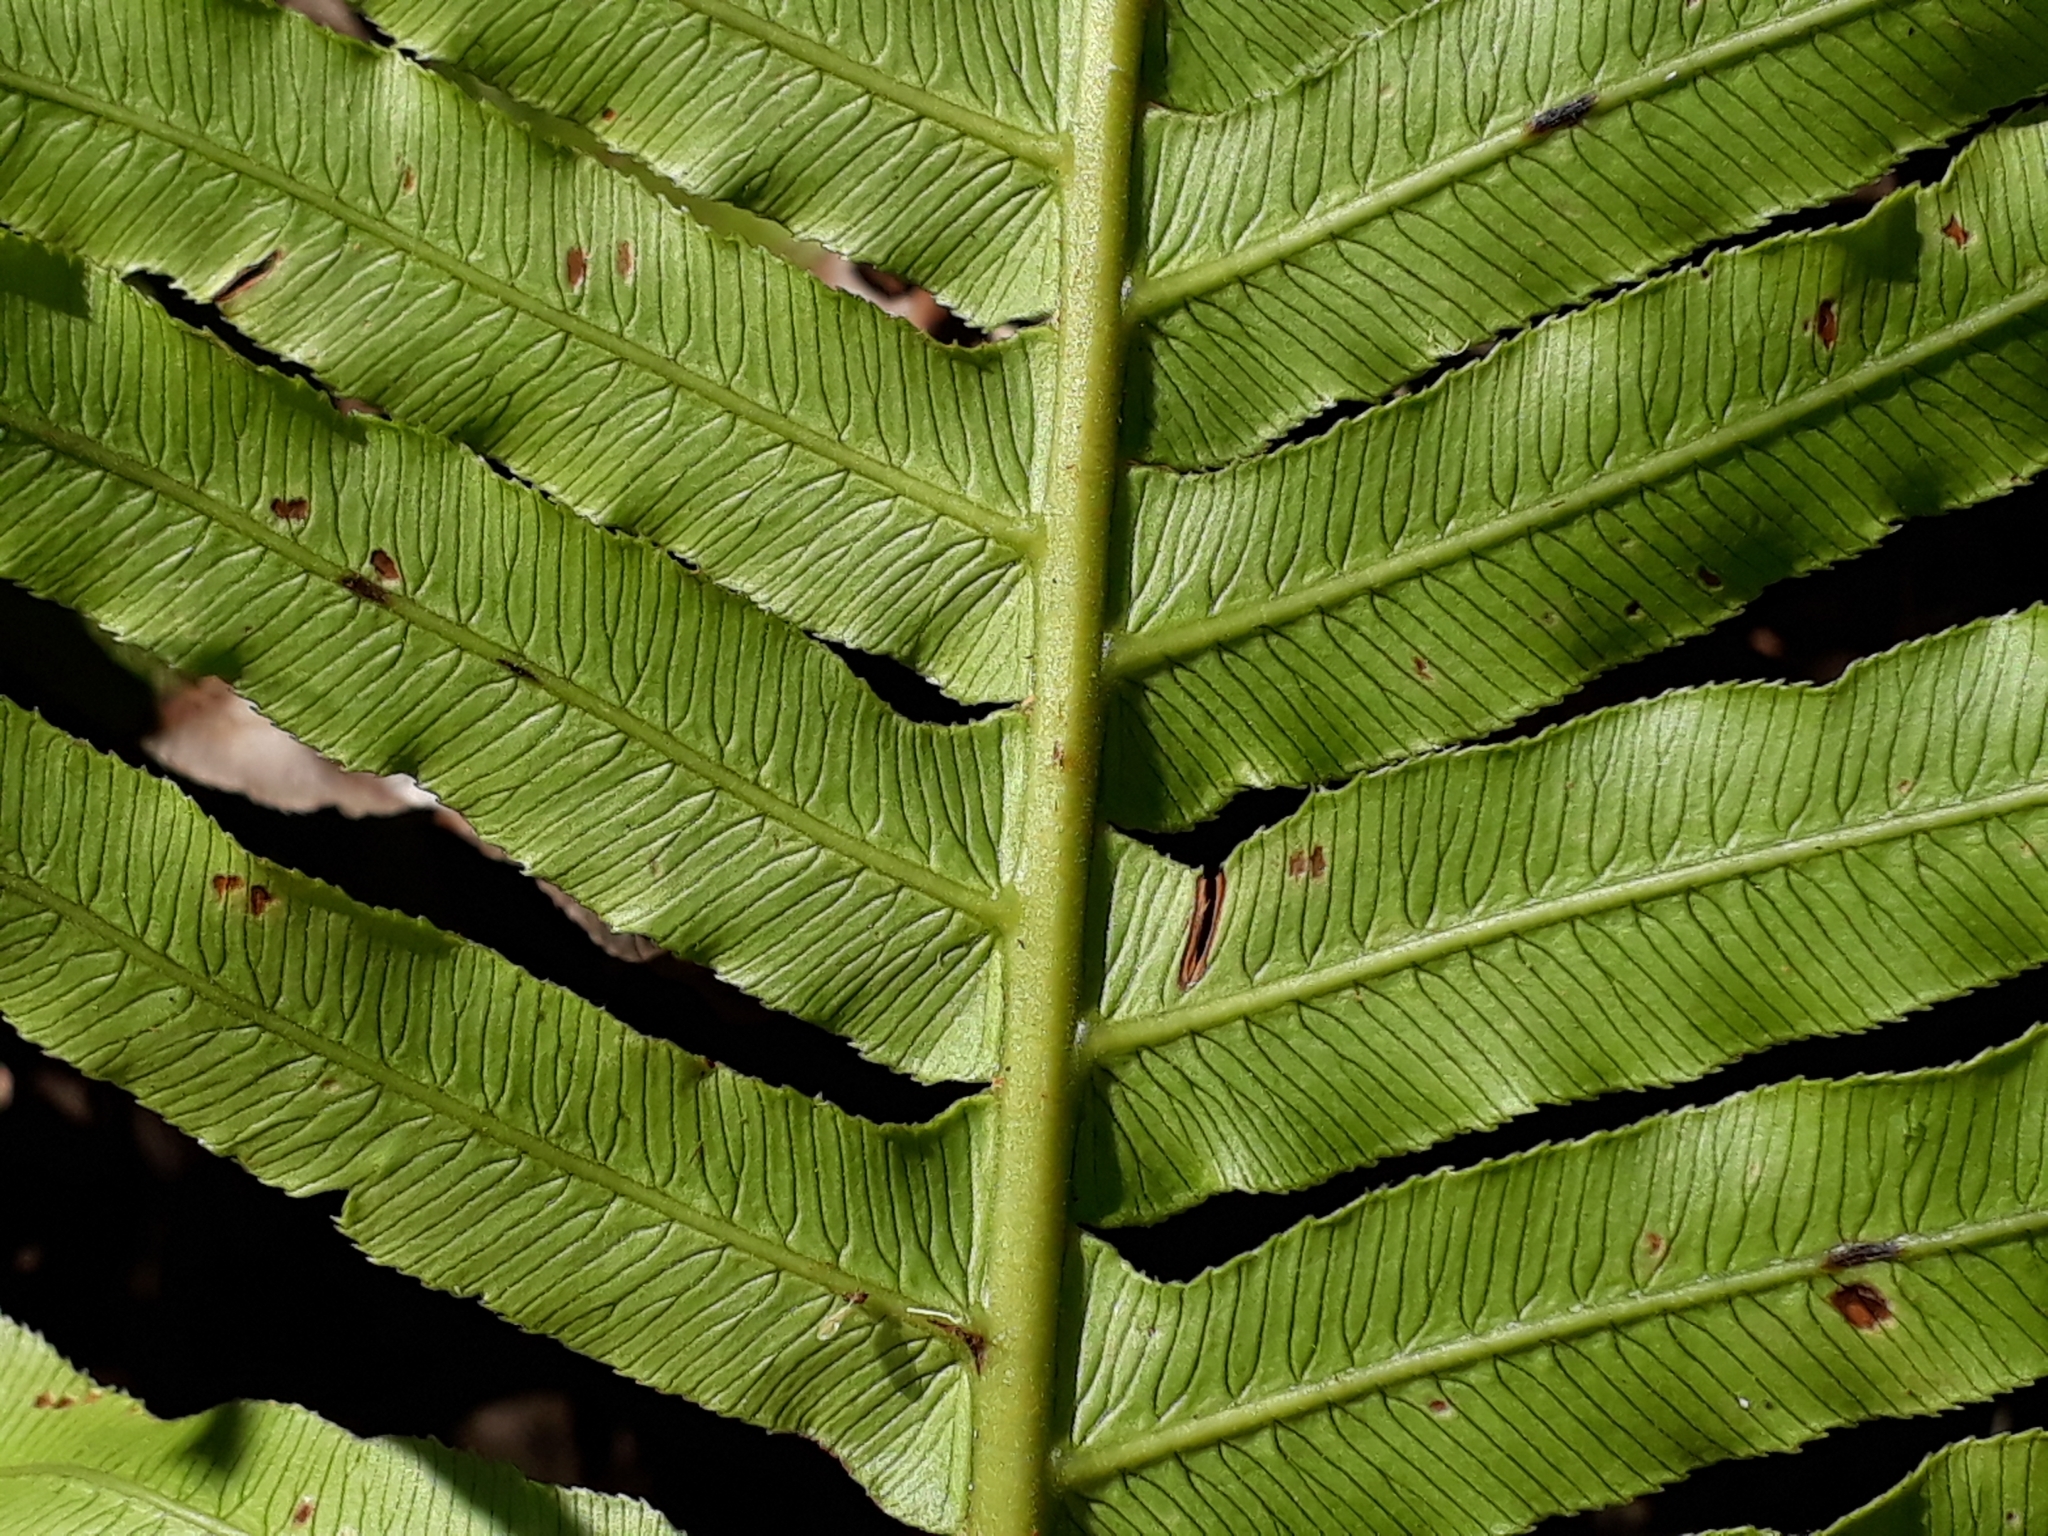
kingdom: Plantae
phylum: Tracheophyta
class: Polypodiopsida
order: Polypodiales
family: Blechnaceae
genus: Oceaniopteris
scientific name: Oceaniopteris cartilaginea
